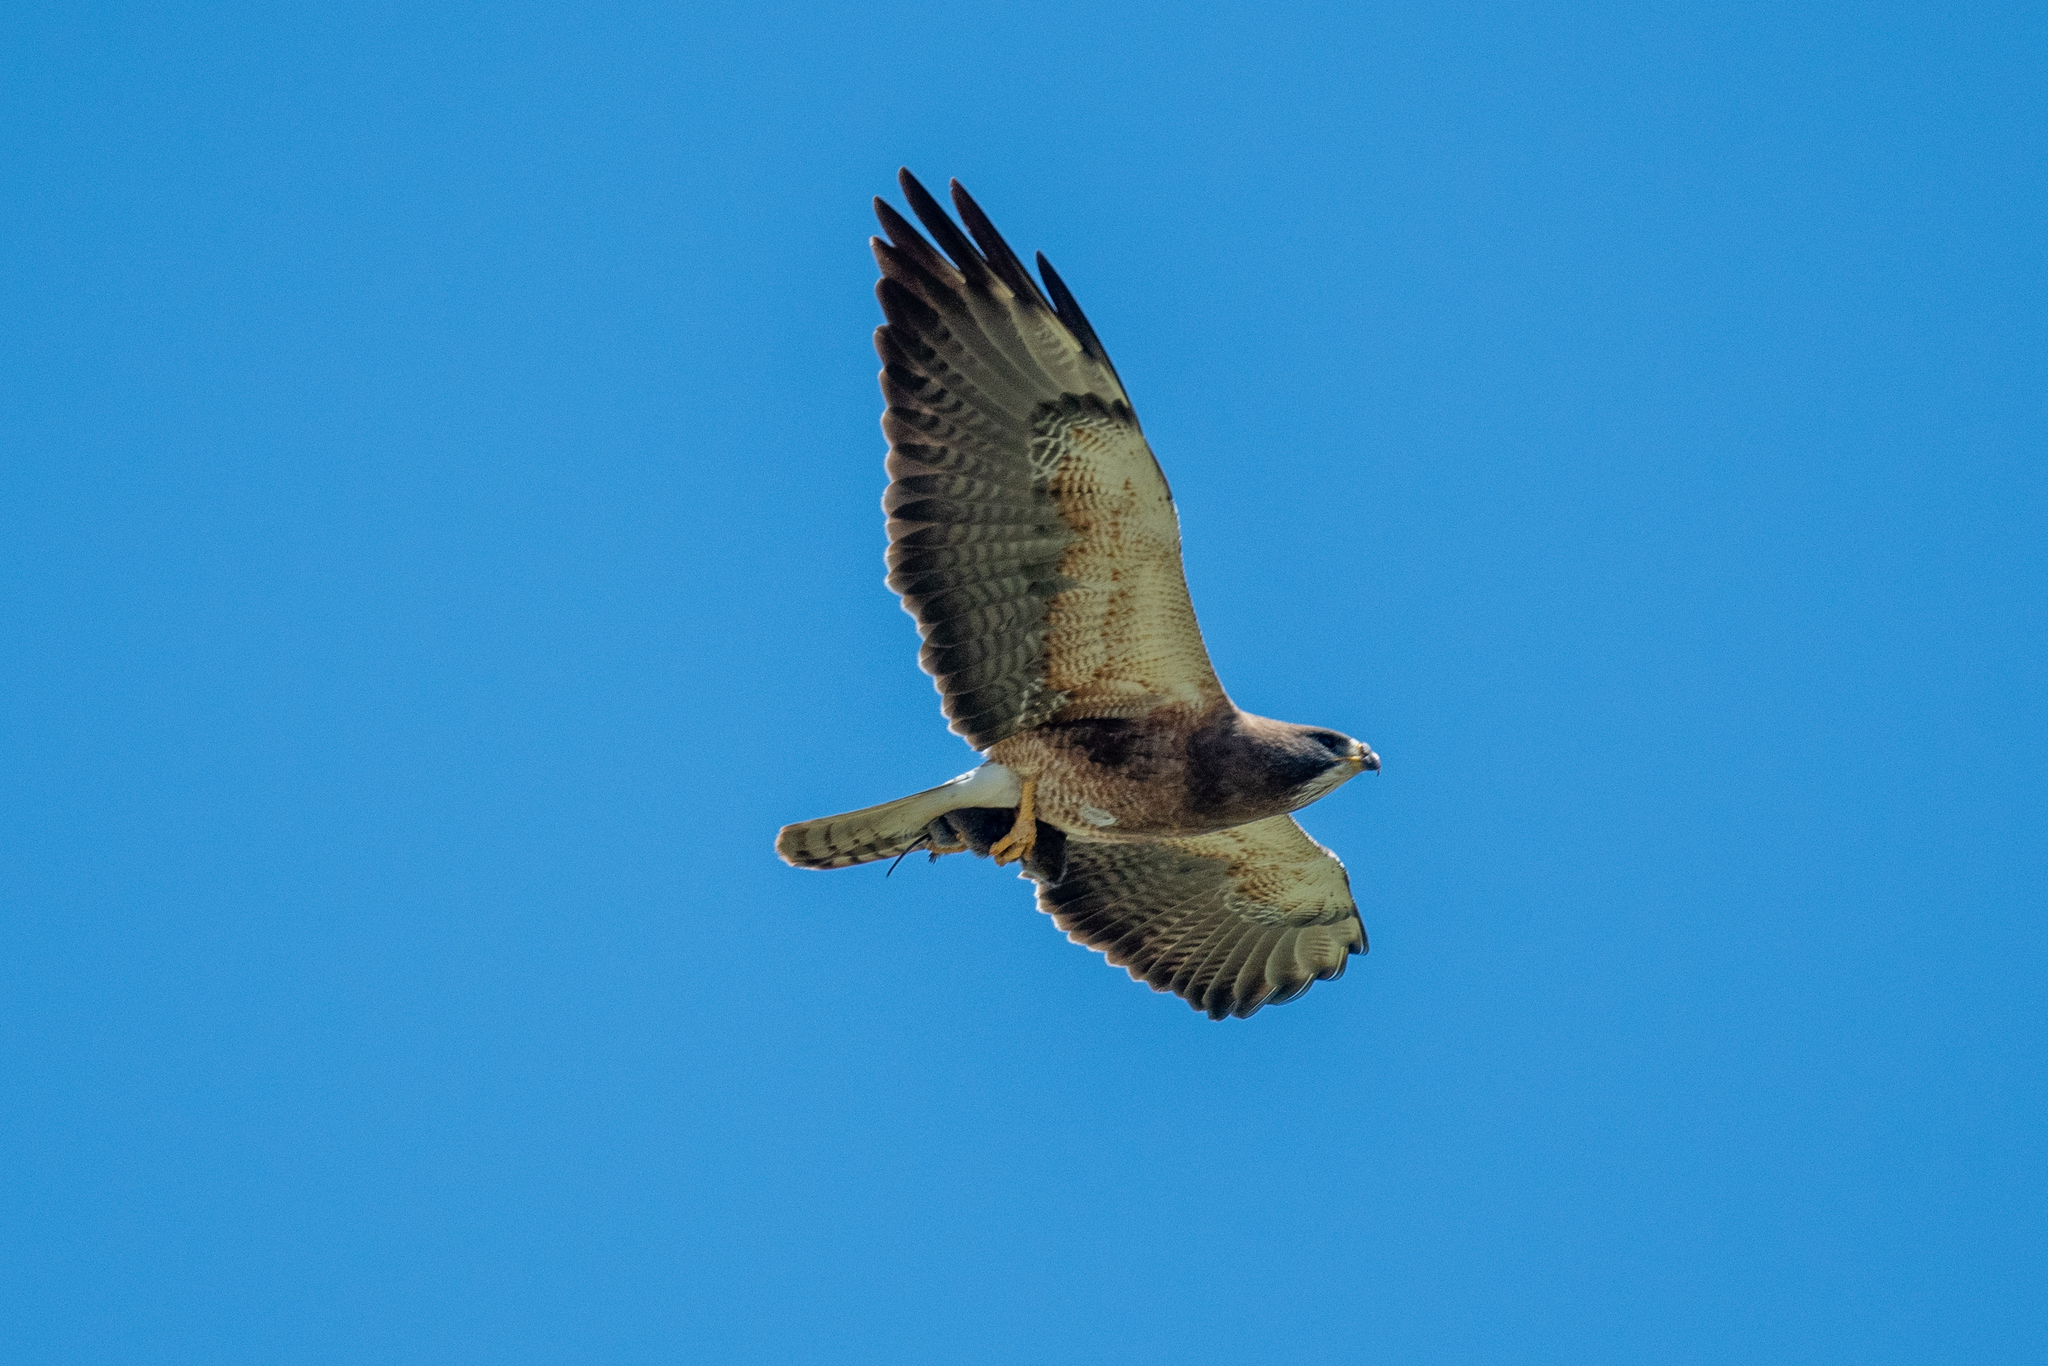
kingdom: Animalia
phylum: Chordata
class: Aves
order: Accipitriformes
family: Accipitridae
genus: Buteo
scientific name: Buteo swainsoni
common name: Swainson's hawk
